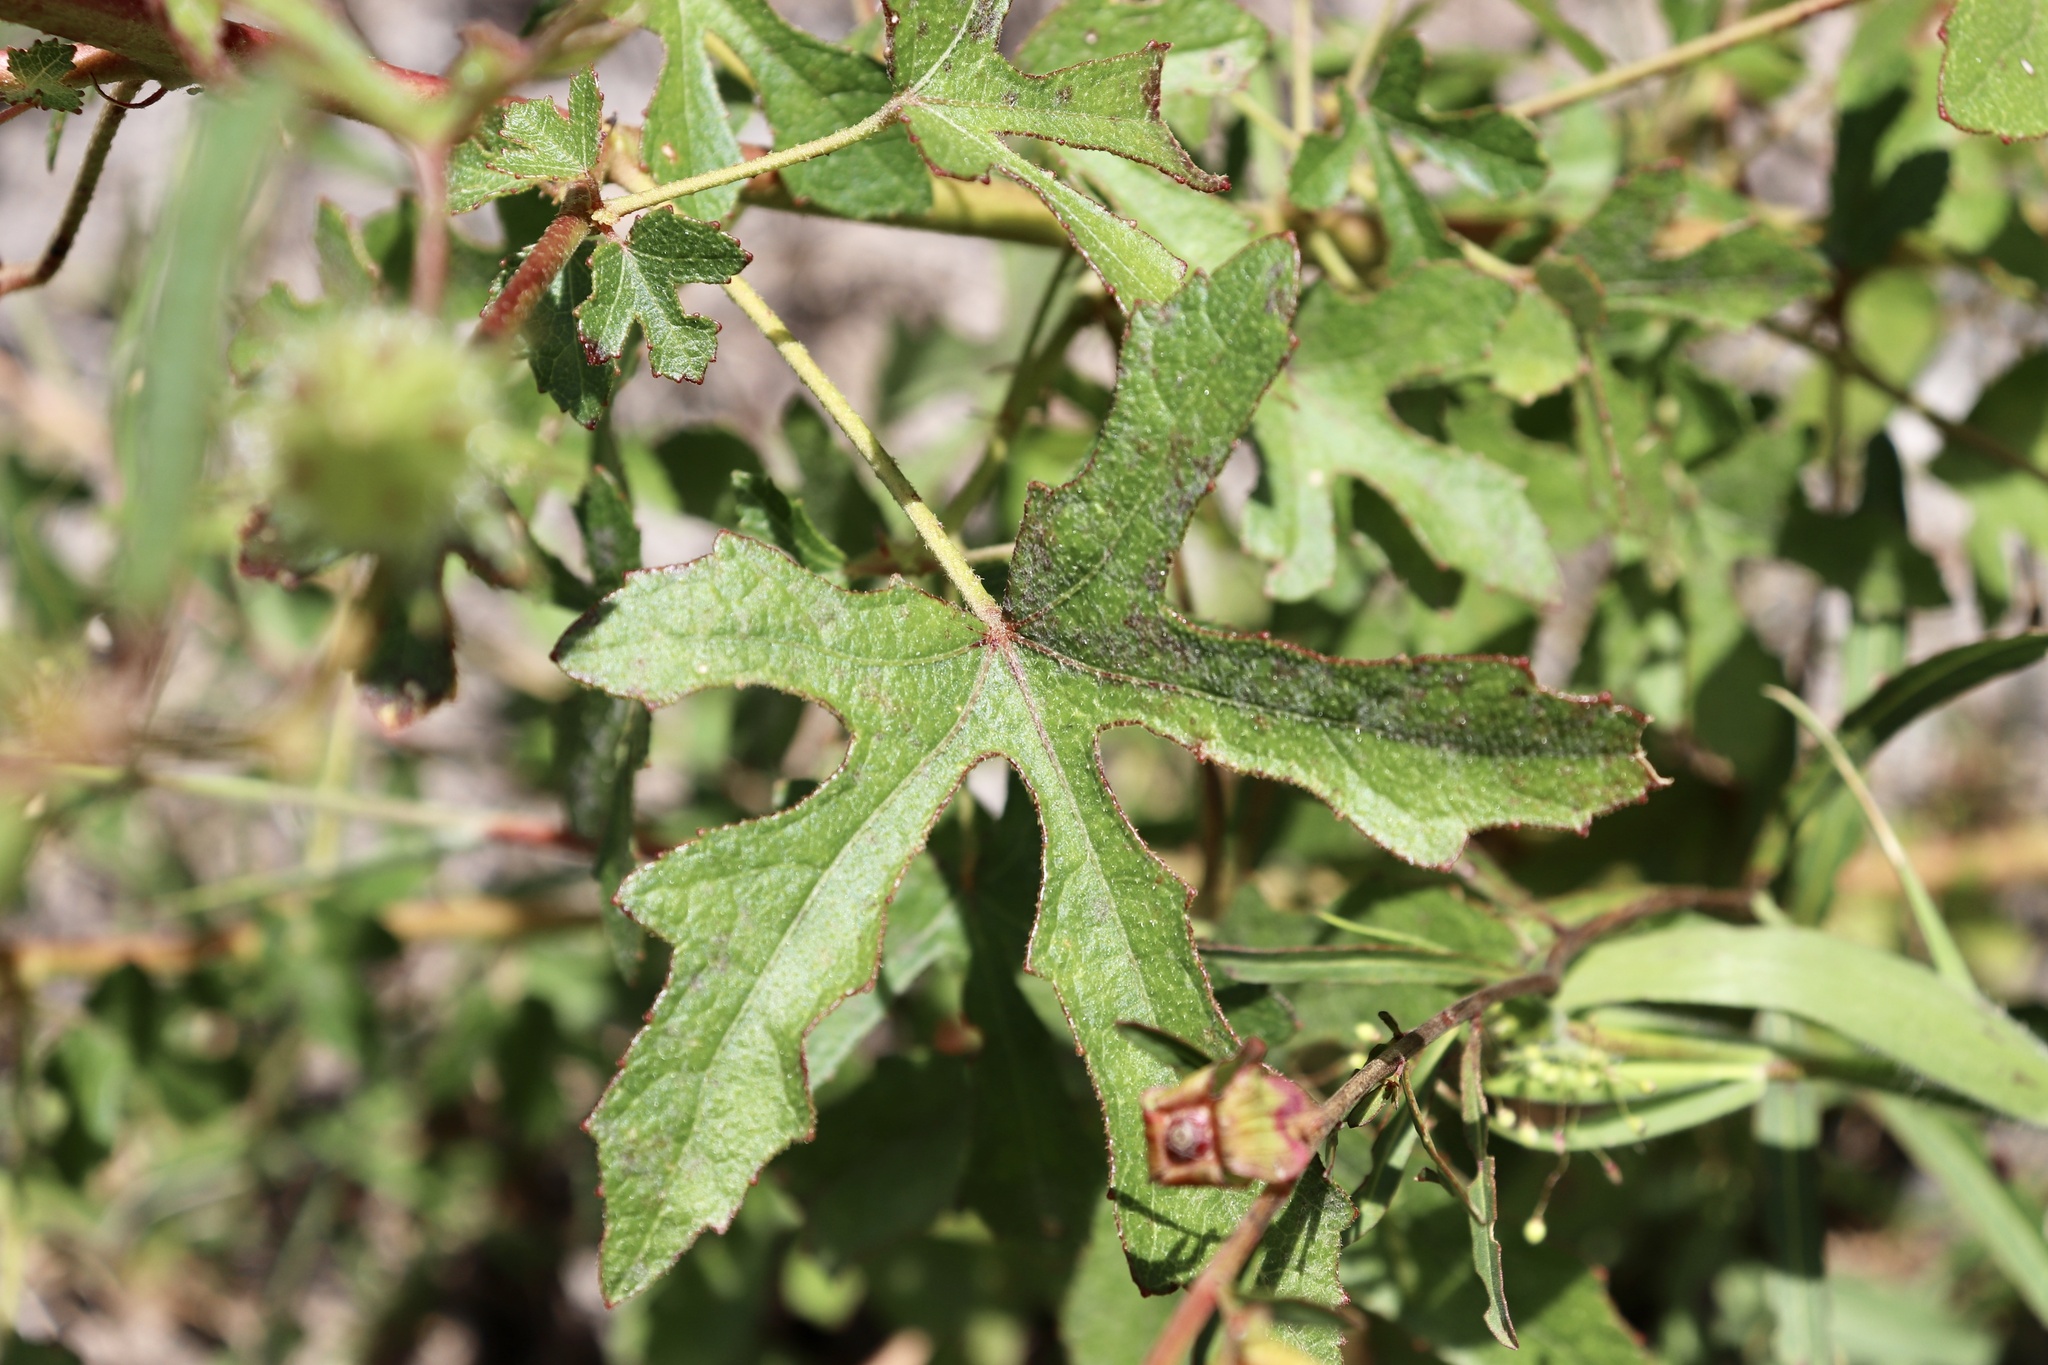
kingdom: Plantae
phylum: Tracheophyta
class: Magnoliopsida
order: Malvales
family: Malvaceae
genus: Hibiscus
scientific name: Hibiscus aculeatus
